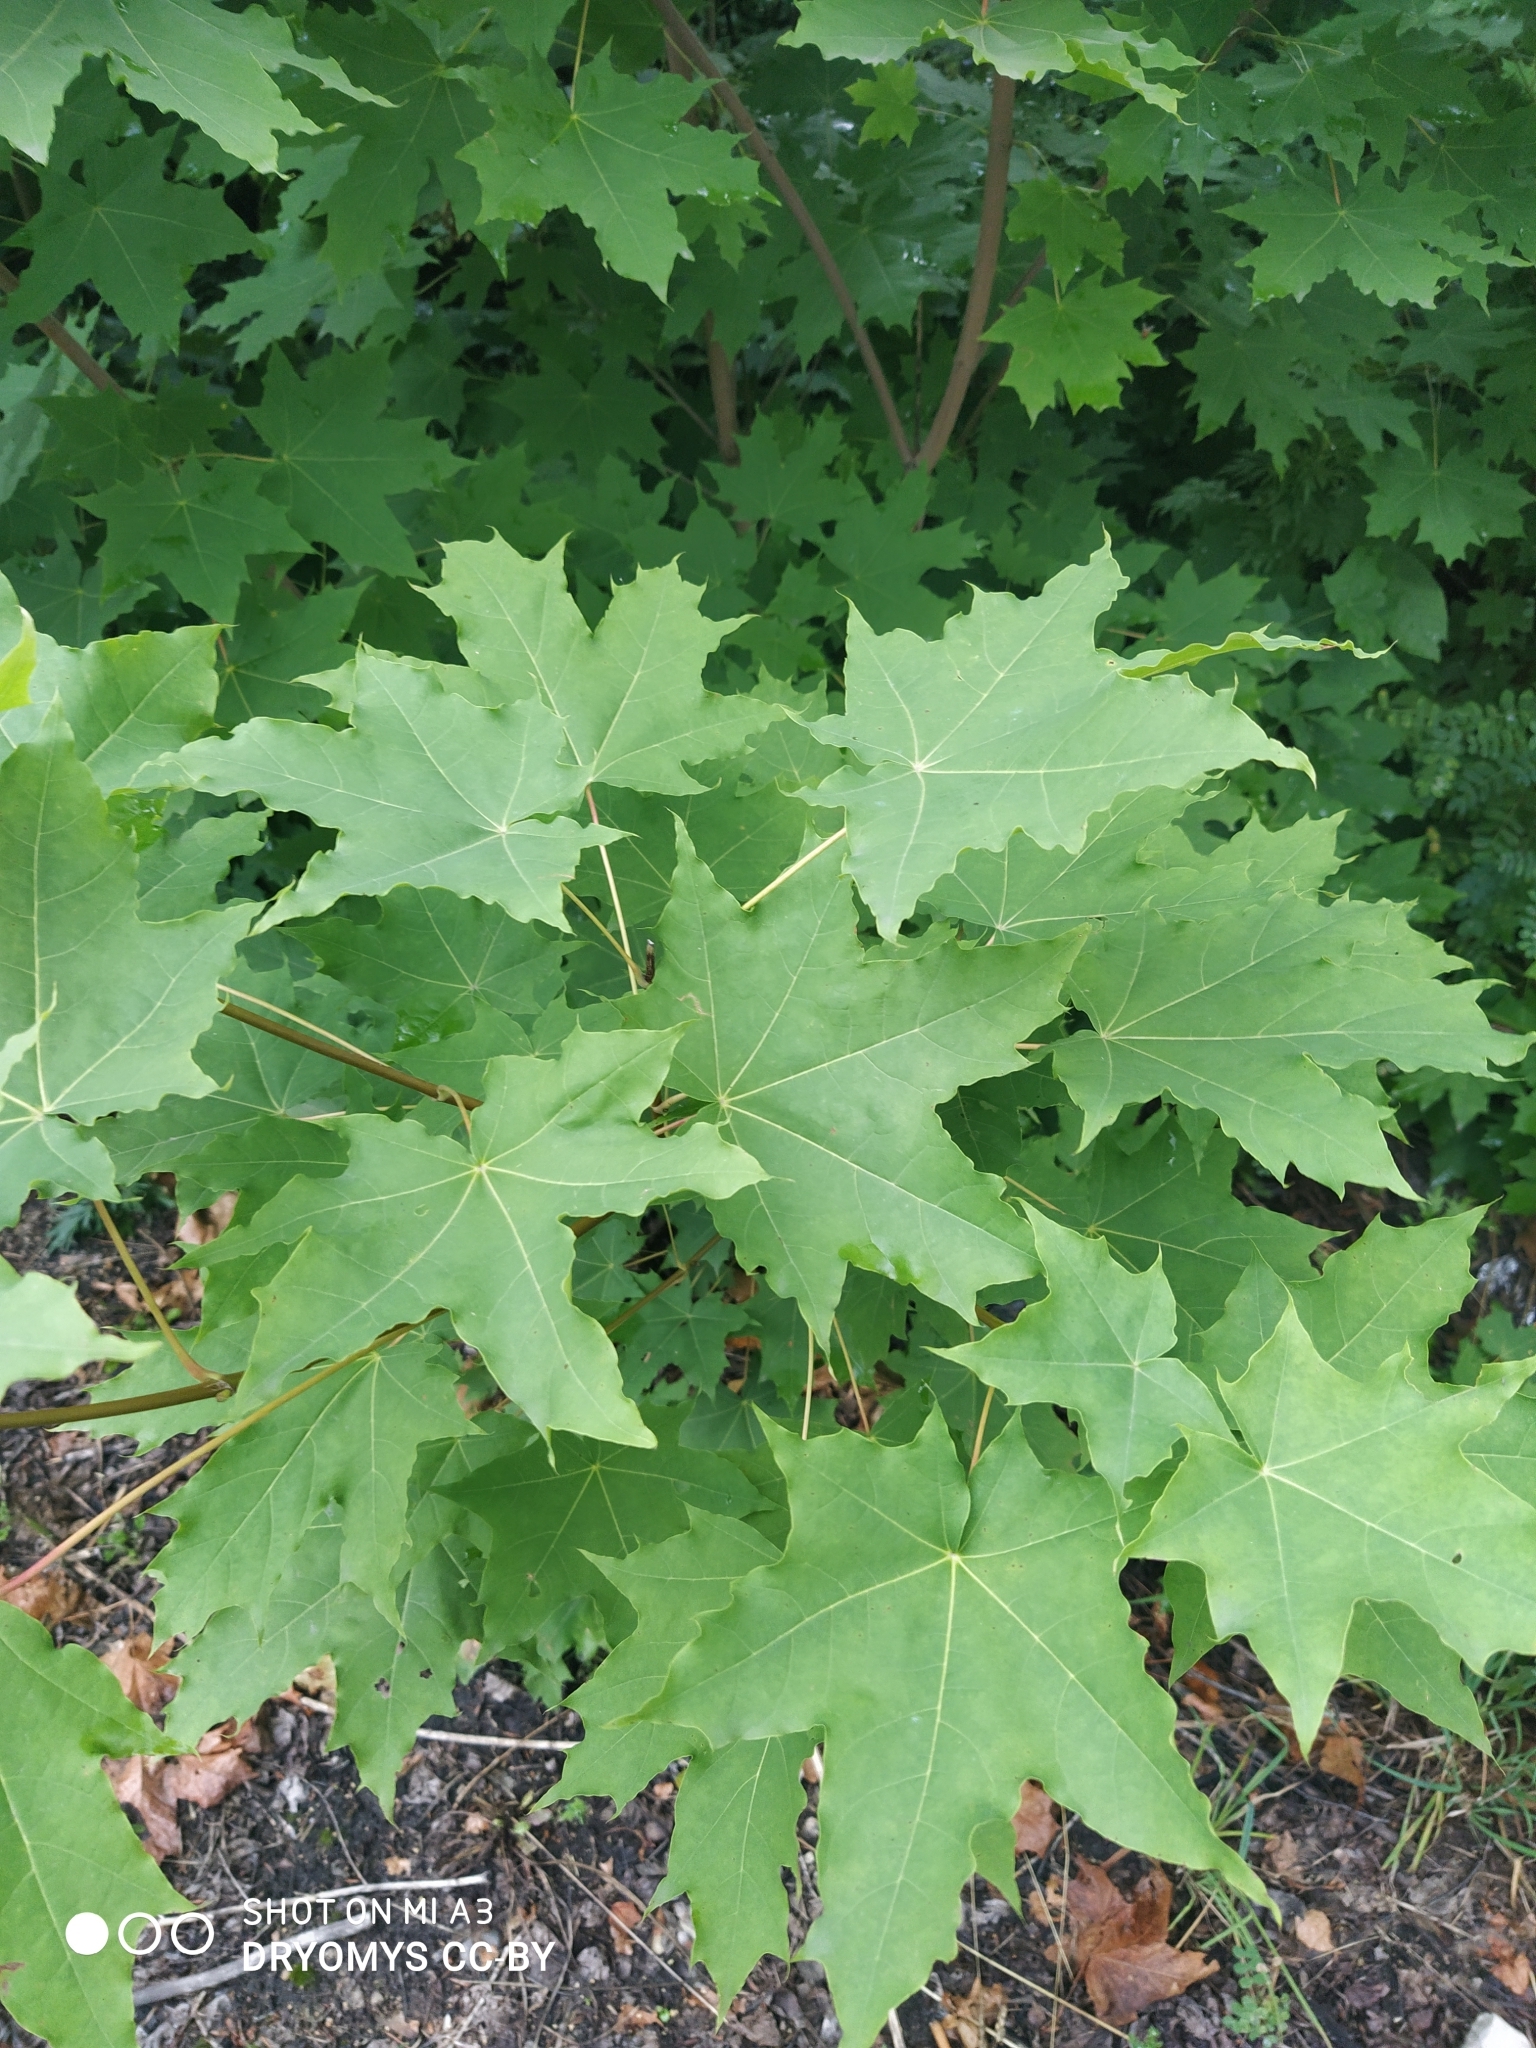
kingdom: Plantae
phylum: Tracheophyta
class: Magnoliopsida
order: Sapindales
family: Sapindaceae
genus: Acer
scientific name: Acer platanoides
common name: Norway maple
